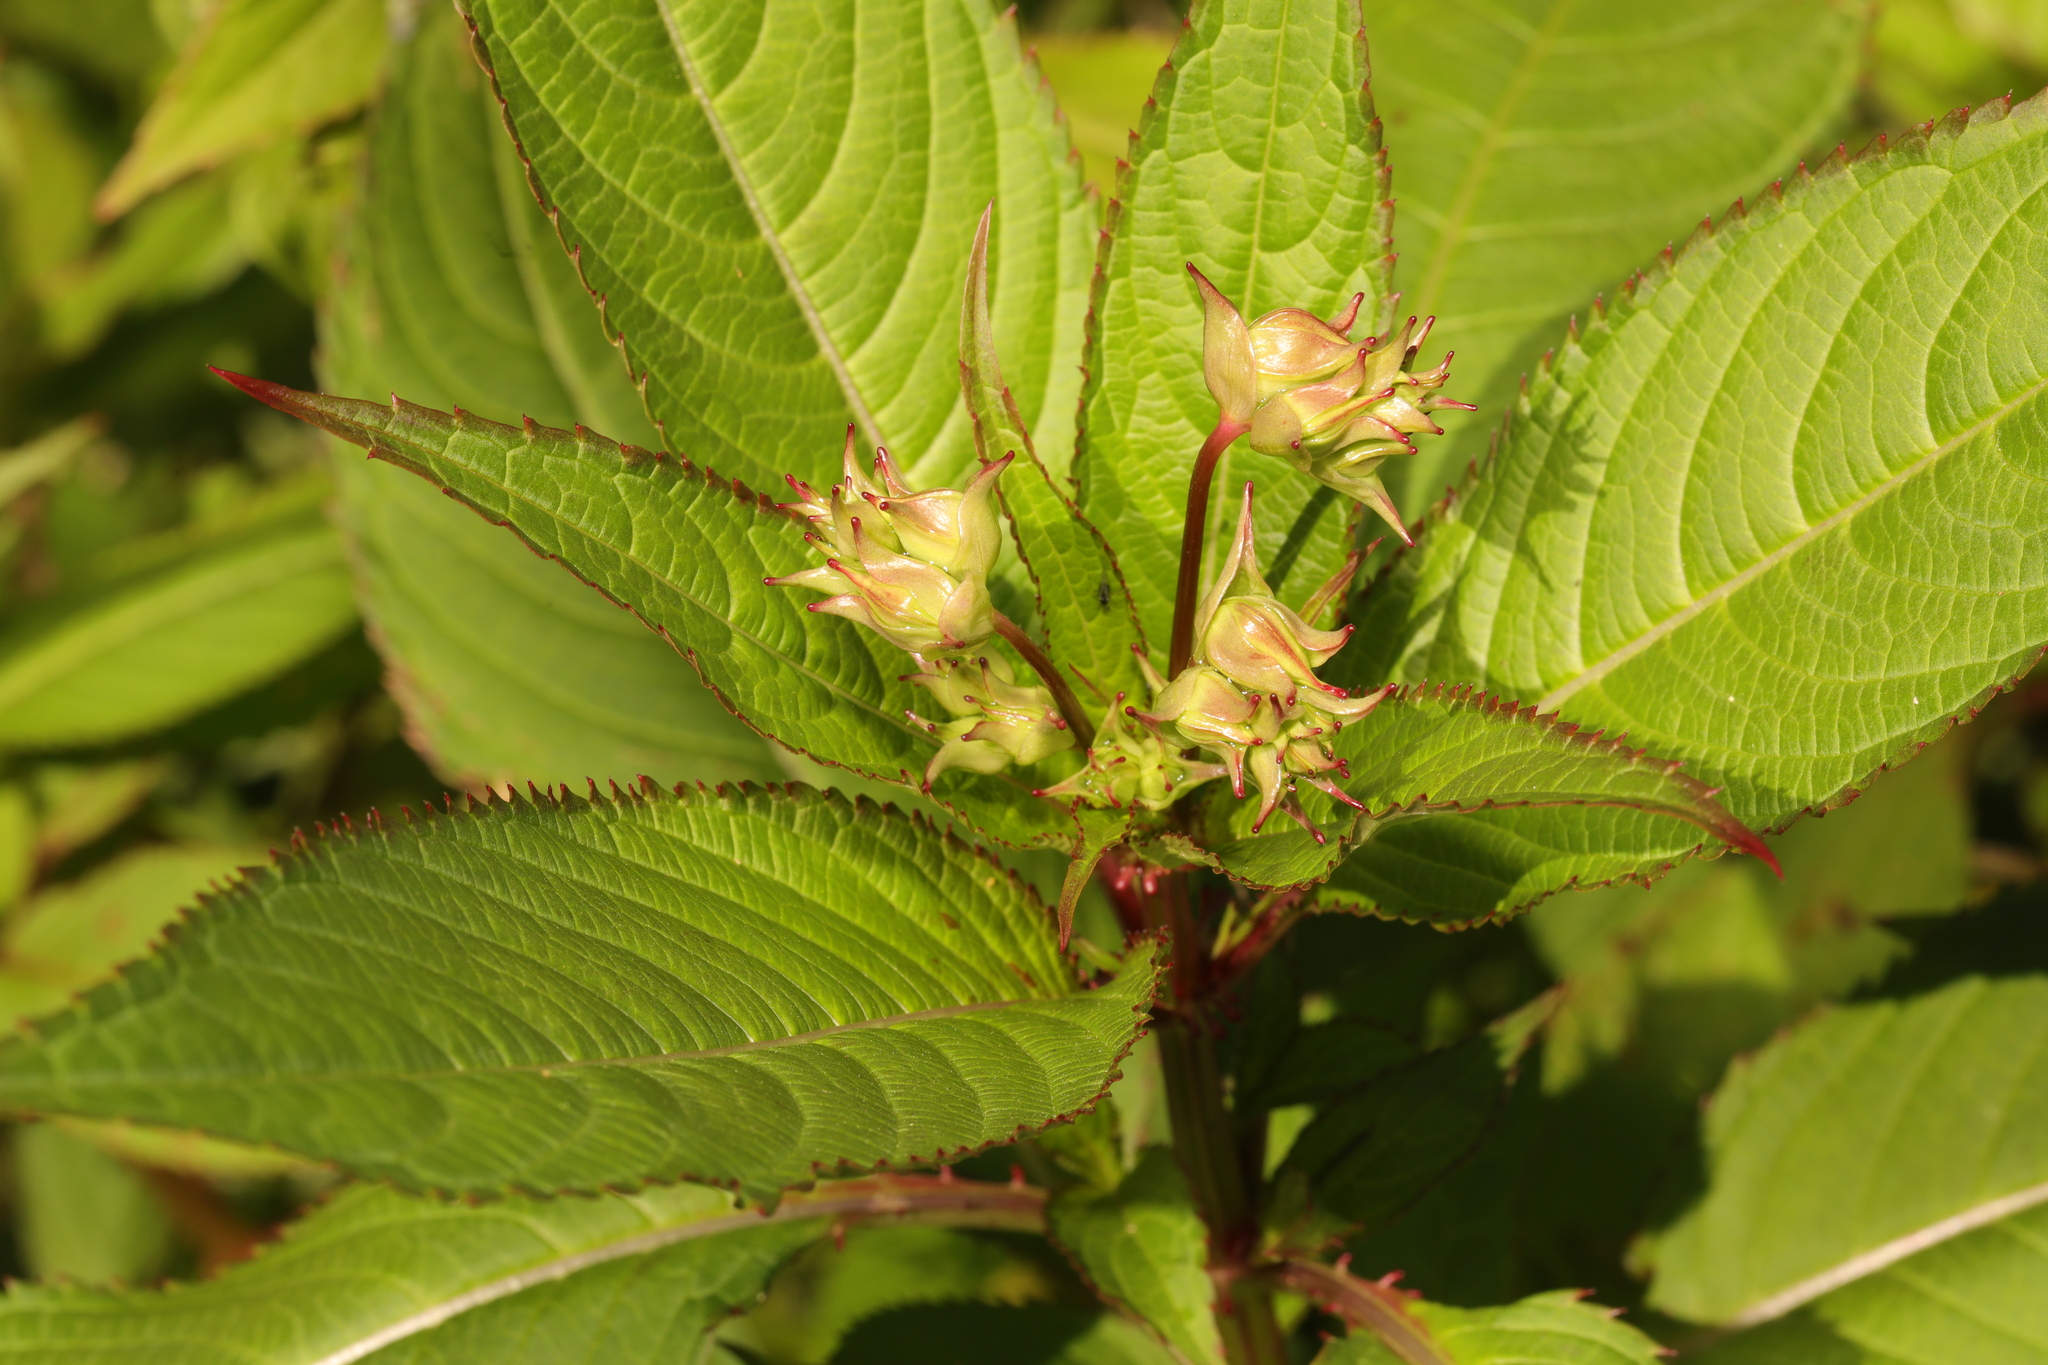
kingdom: Plantae
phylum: Tracheophyta
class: Magnoliopsida
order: Ericales
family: Balsaminaceae
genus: Impatiens
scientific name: Impatiens glandulifera
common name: Himalayan balsam
